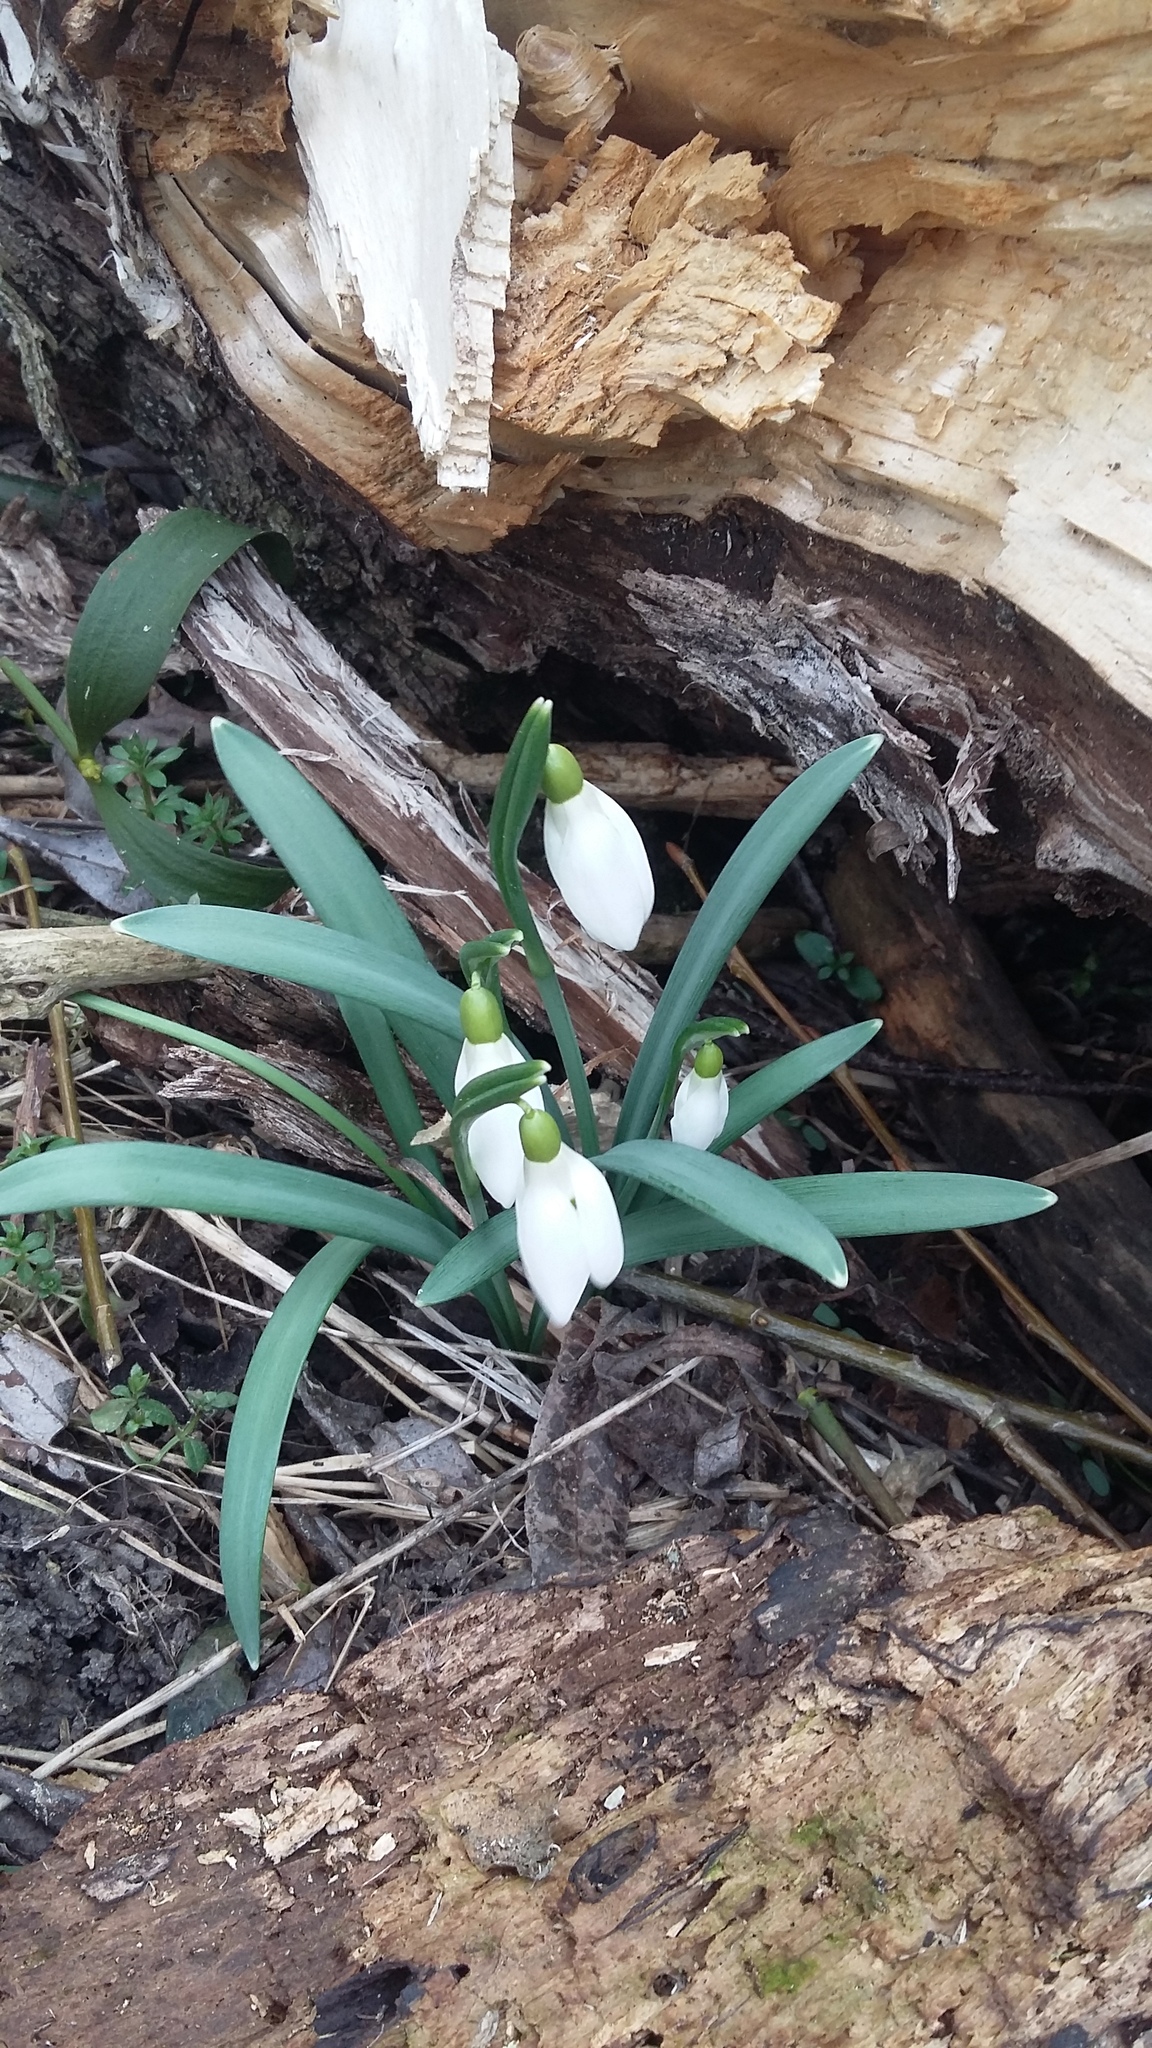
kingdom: Plantae
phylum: Tracheophyta
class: Liliopsida
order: Asparagales
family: Amaryllidaceae
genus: Galanthus
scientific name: Galanthus nivalis
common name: Snowdrop
